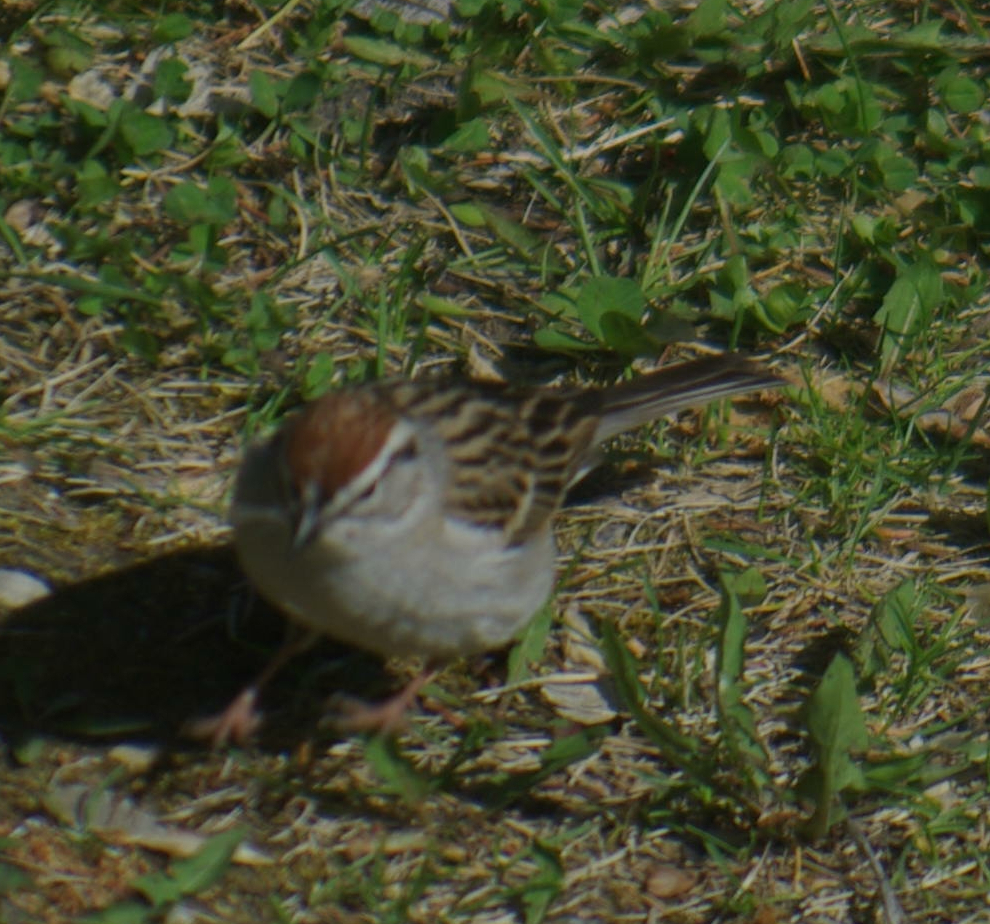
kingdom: Animalia
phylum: Chordata
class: Aves
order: Passeriformes
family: Passerellidae
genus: Spizella
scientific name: Spizella passerina
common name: Chipping sparrow
